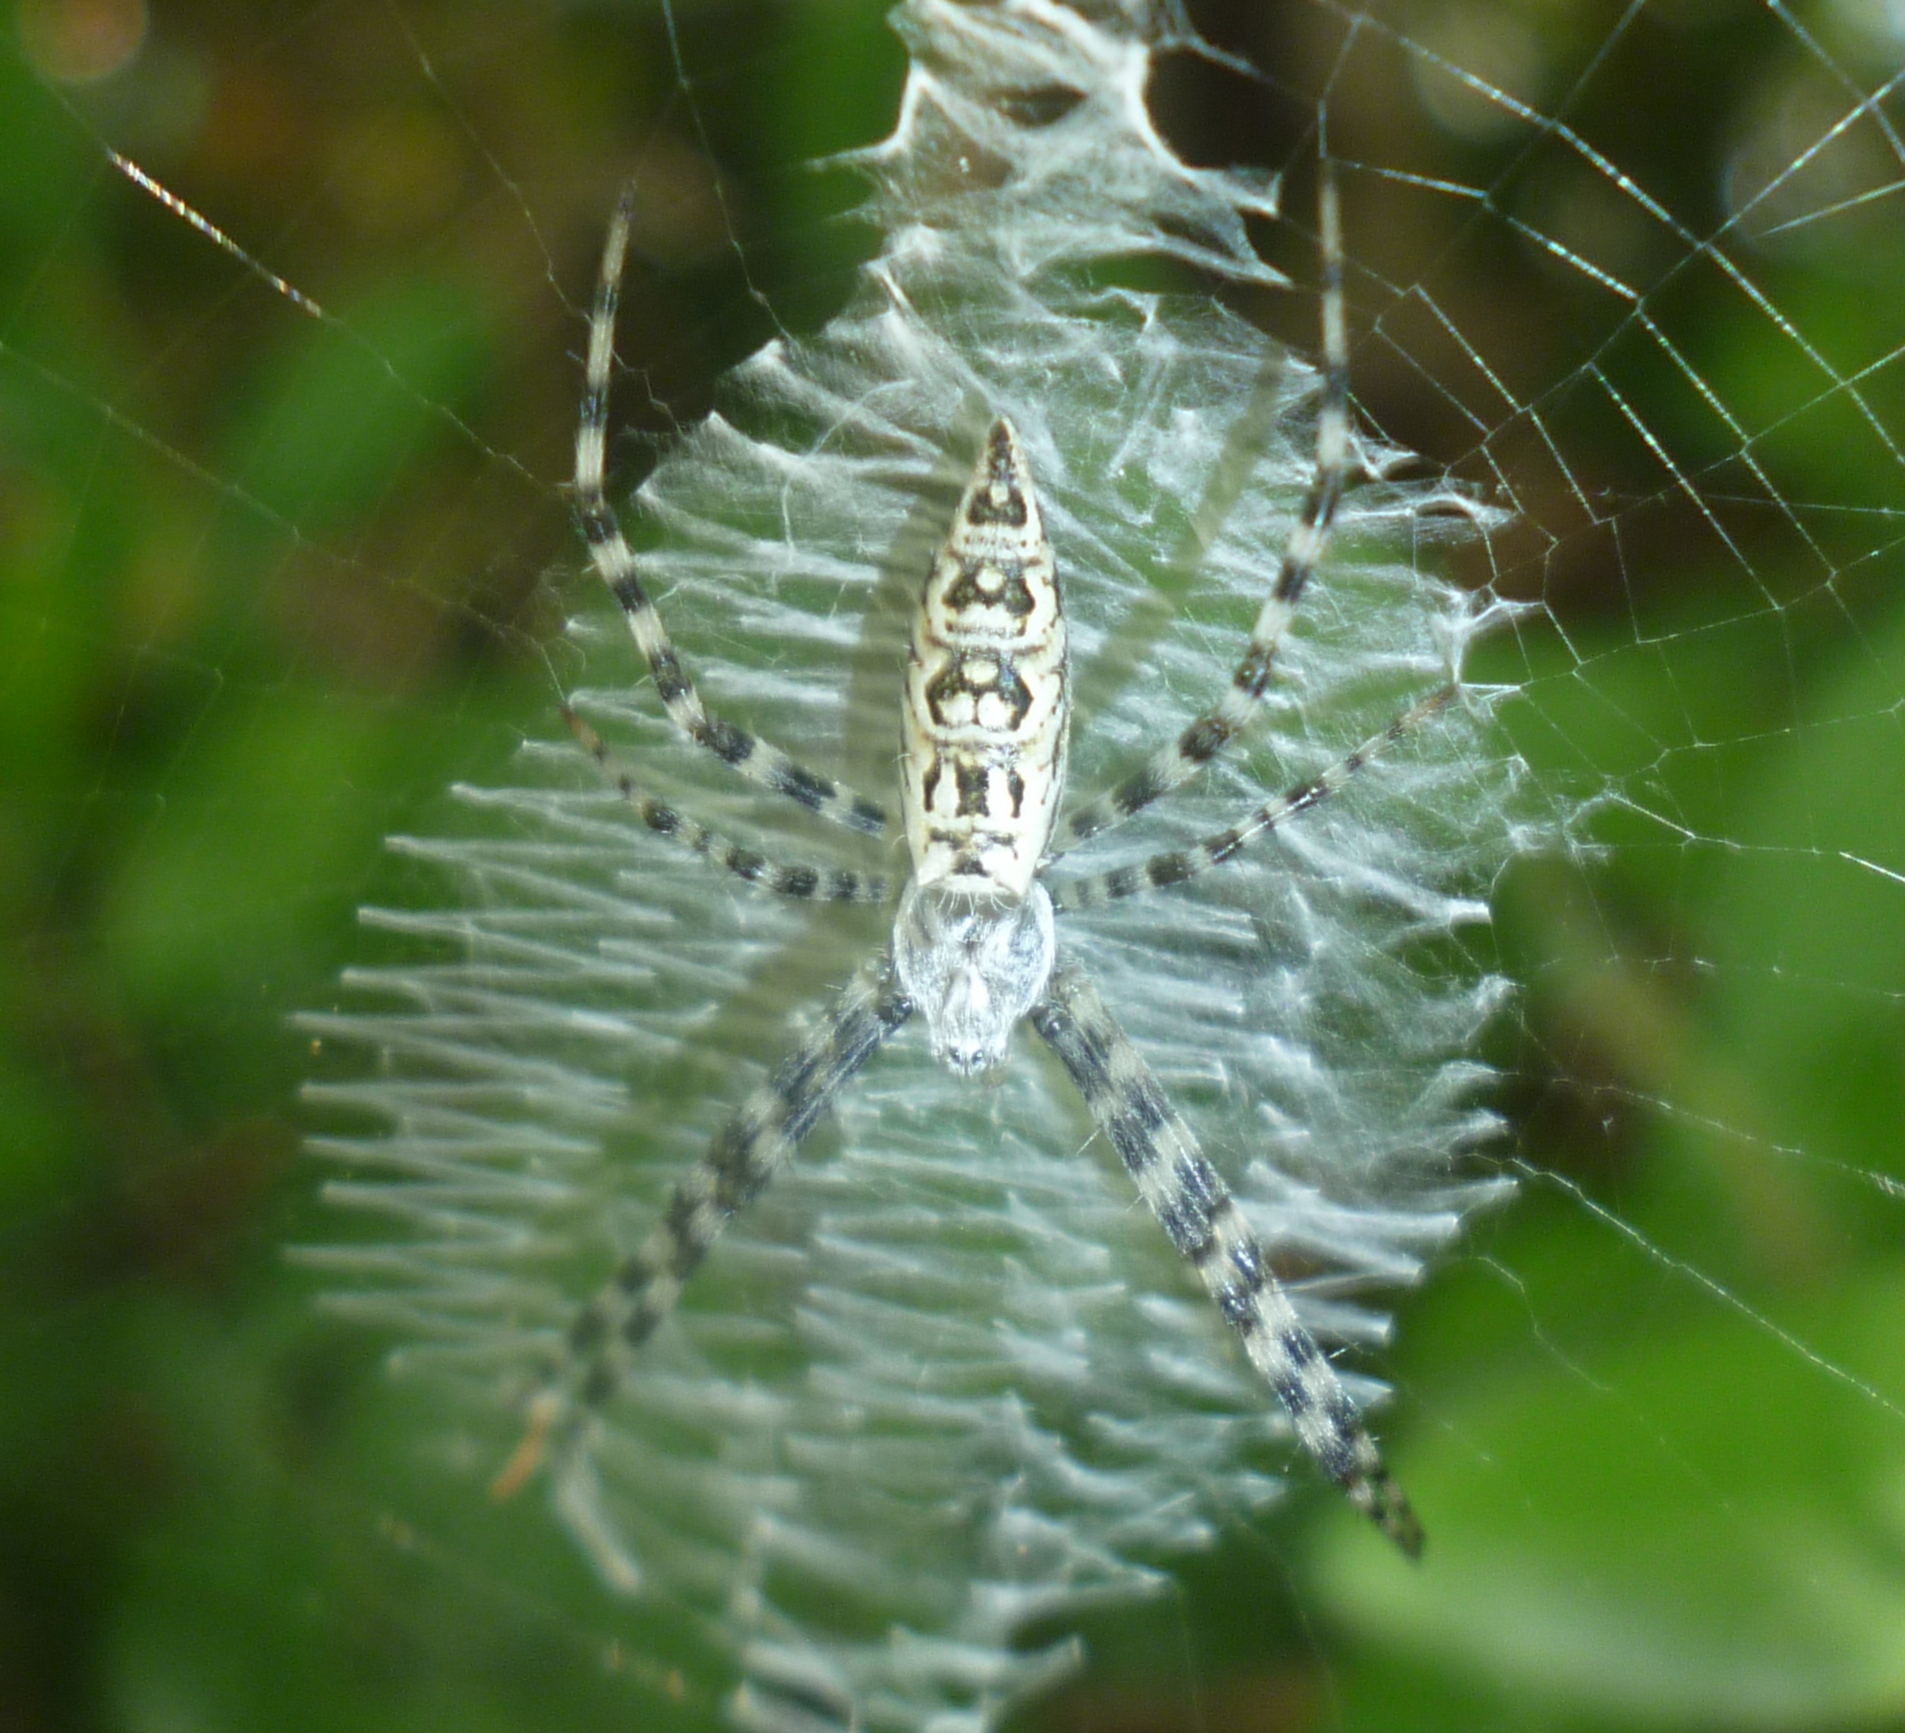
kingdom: Animalia
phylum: Arthropoda
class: Arachnida
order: Araneae
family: Araneidae
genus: Argiope
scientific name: Argiope aurantia
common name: Orb weavers
